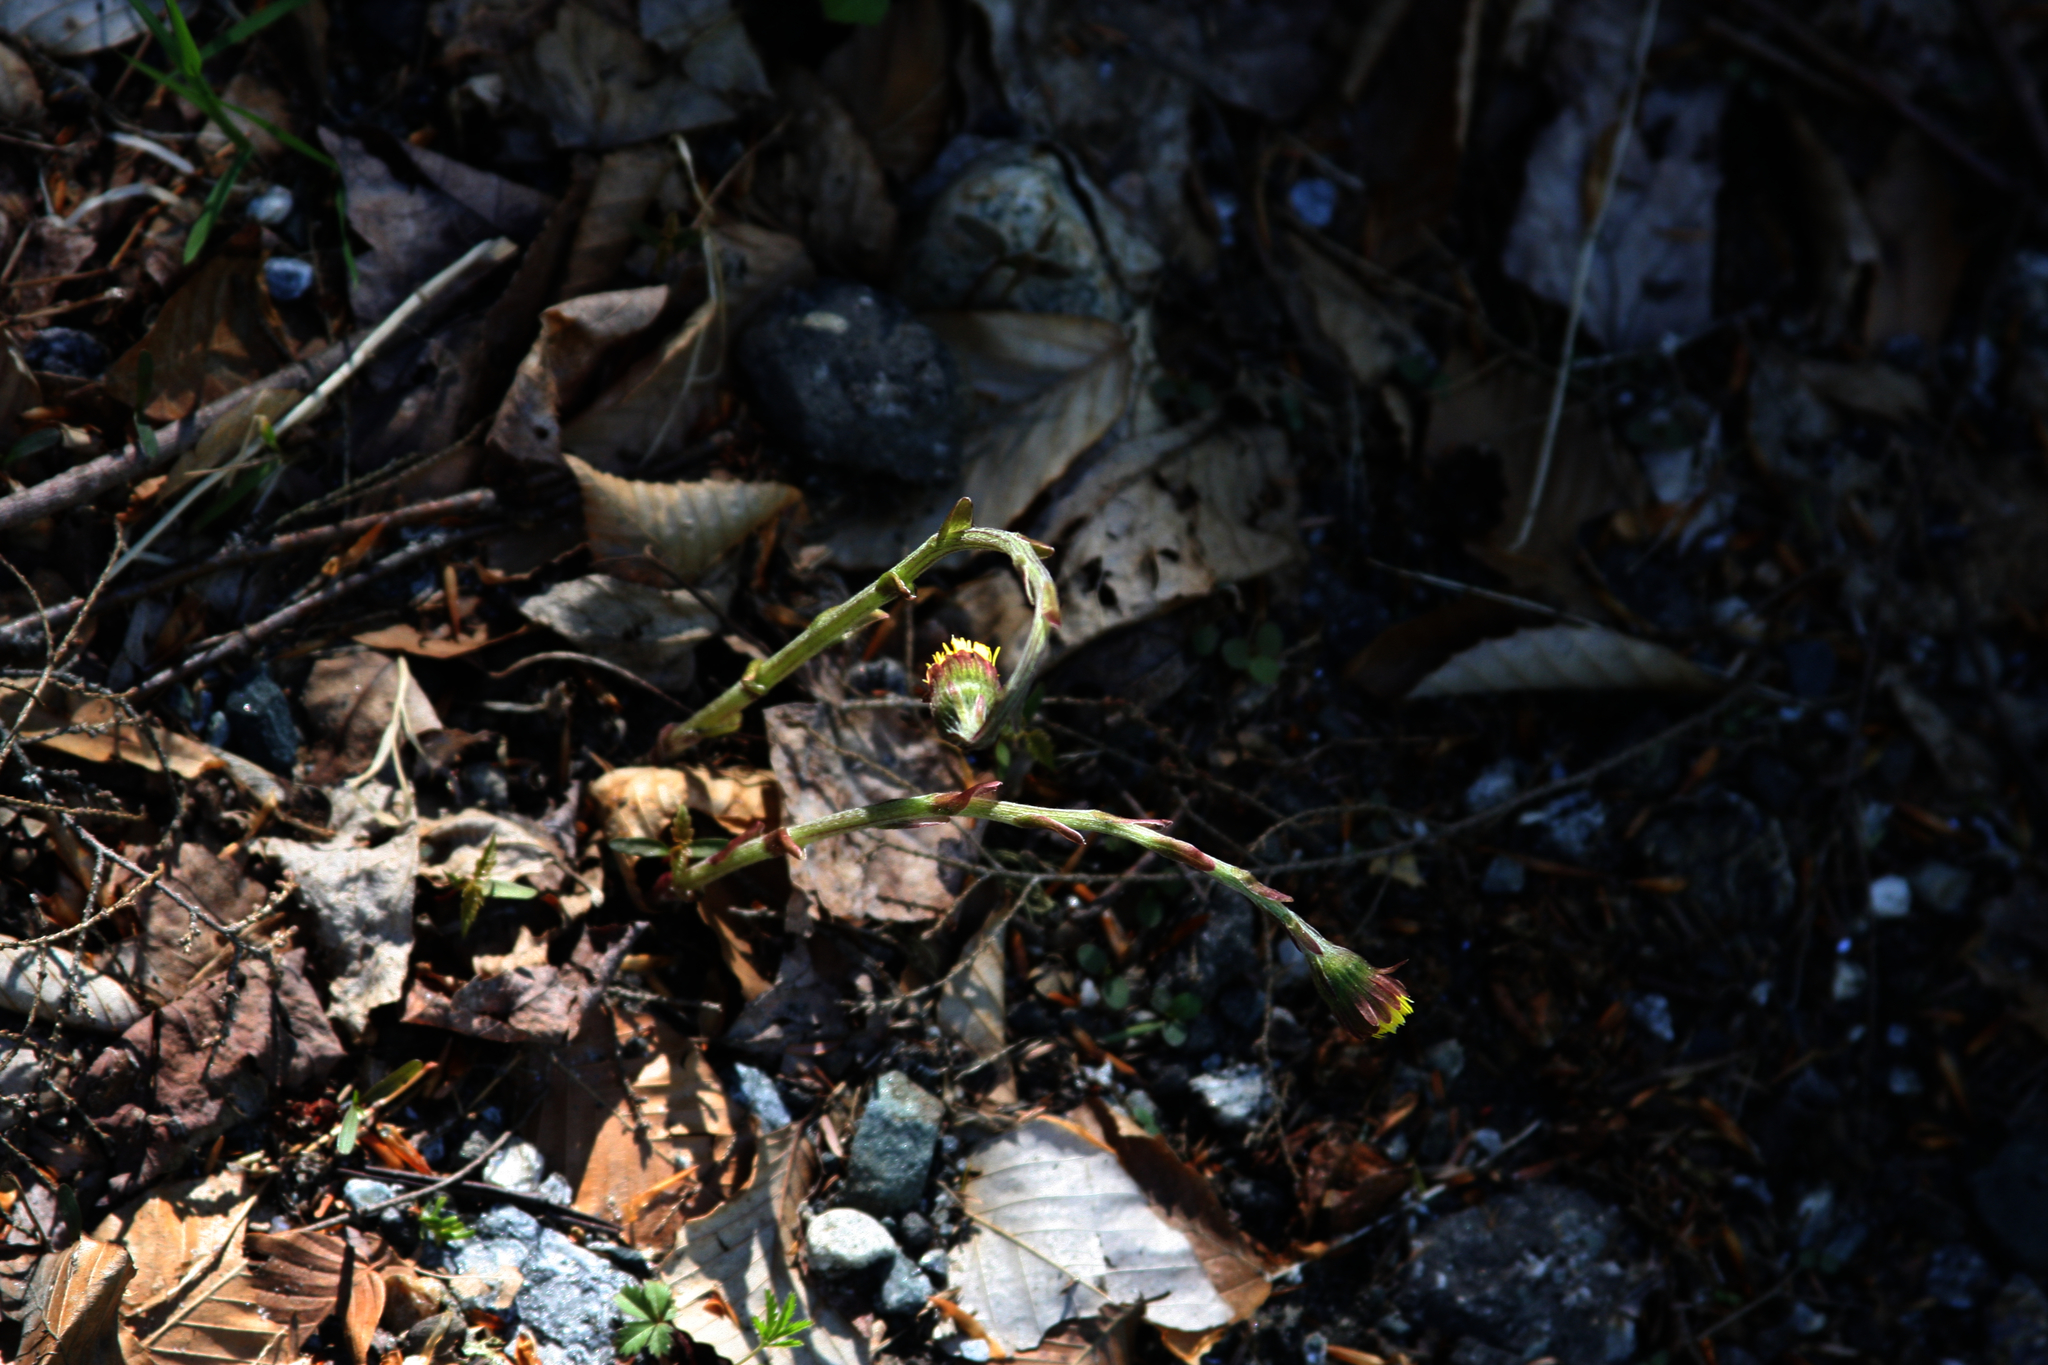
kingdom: Plantae
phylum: Tracheophyta
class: Magnoliopsida
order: Asterales
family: Asteraceae
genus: Tussilago
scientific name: Tussilago farfara
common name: Coltsfoot
